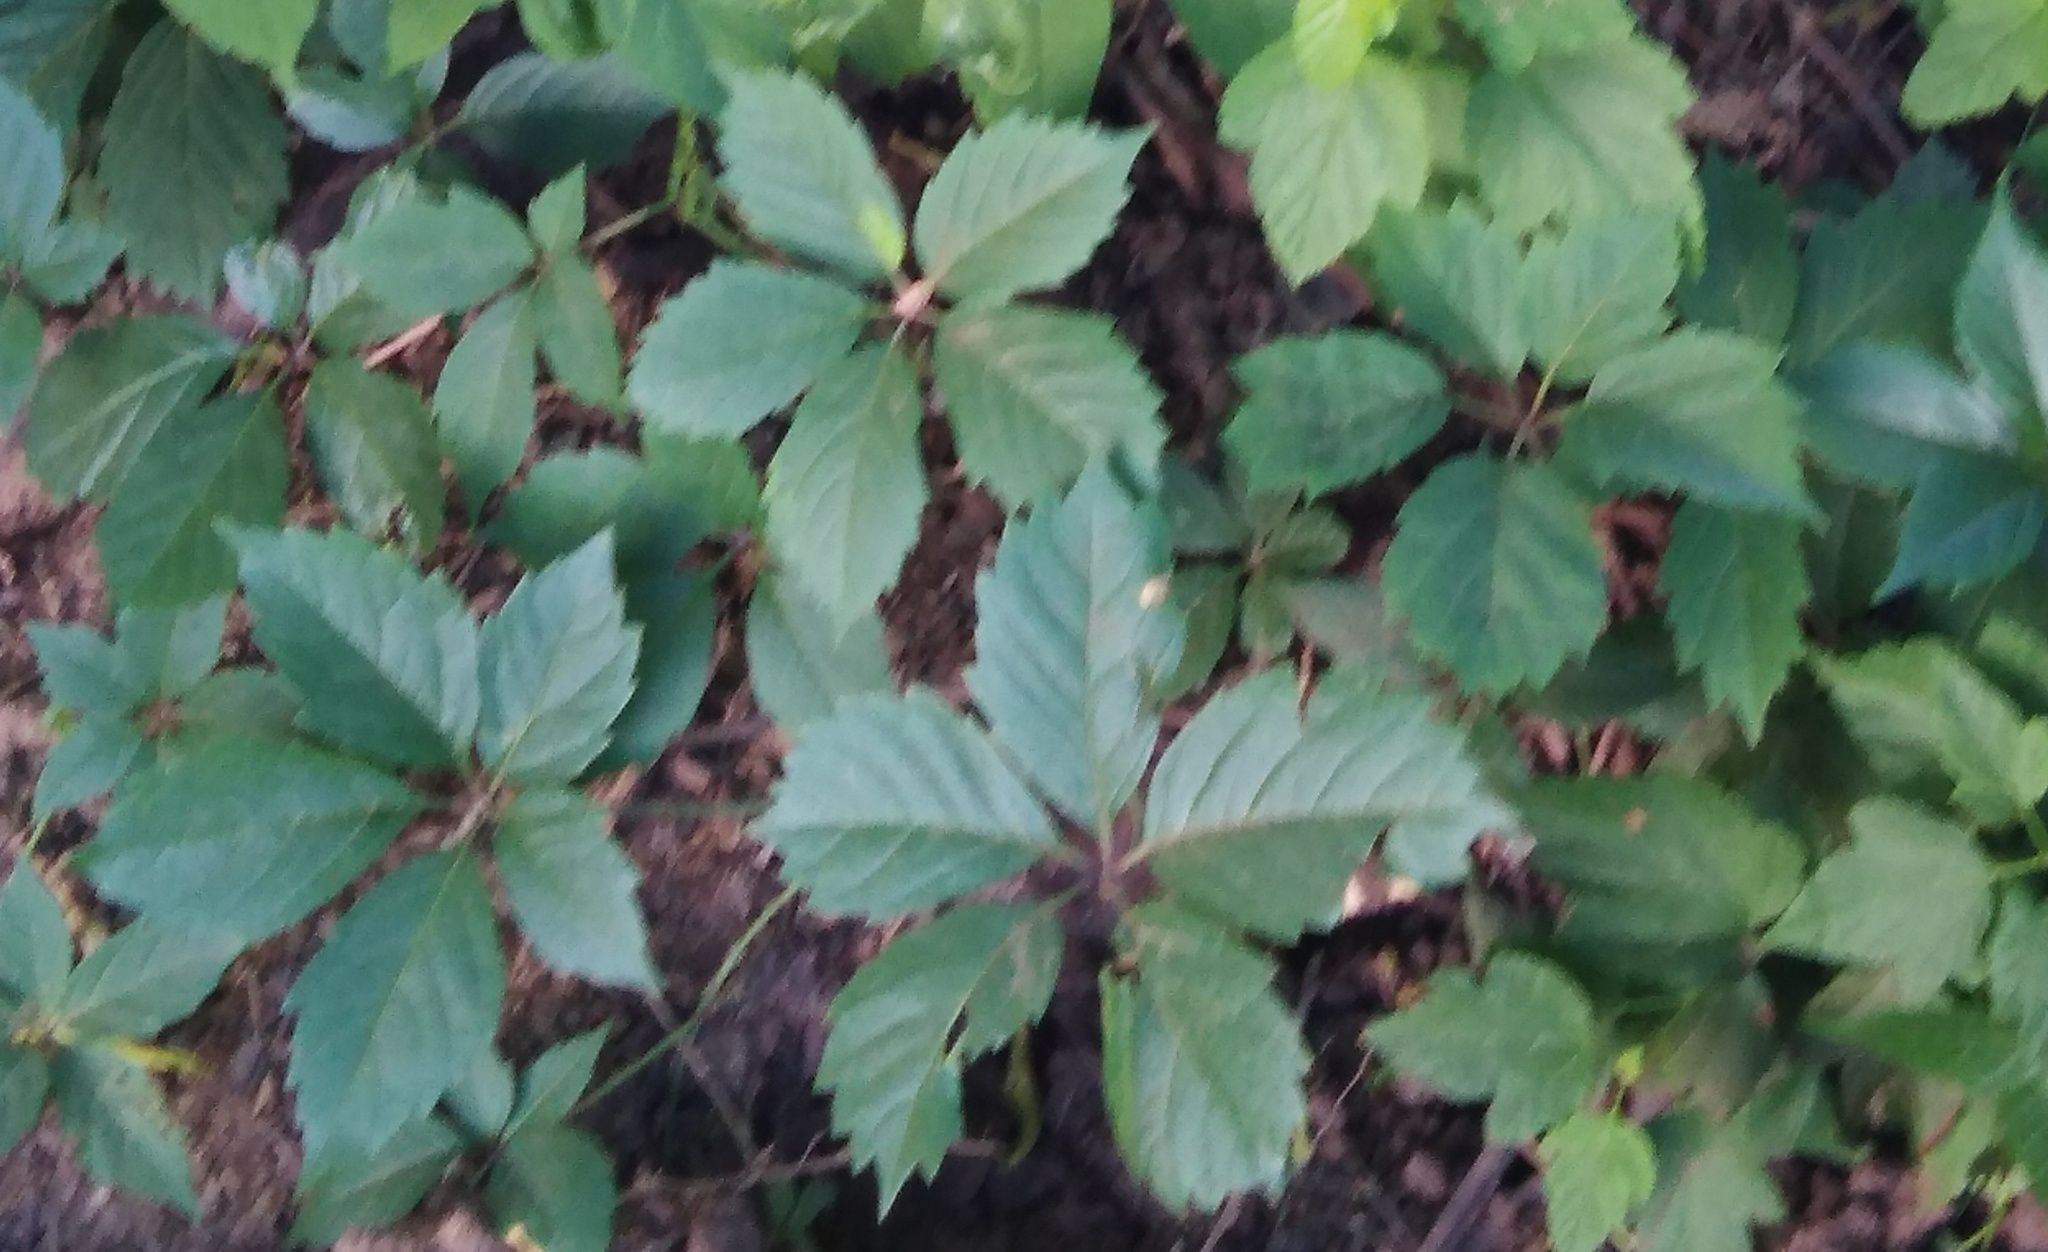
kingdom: Plantae
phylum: Tracheophyta
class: Magnoliopsida
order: Vitales
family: Vitaceae
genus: Parthenocissus
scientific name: Parthenocissus inserta
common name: False virginia-creeper
